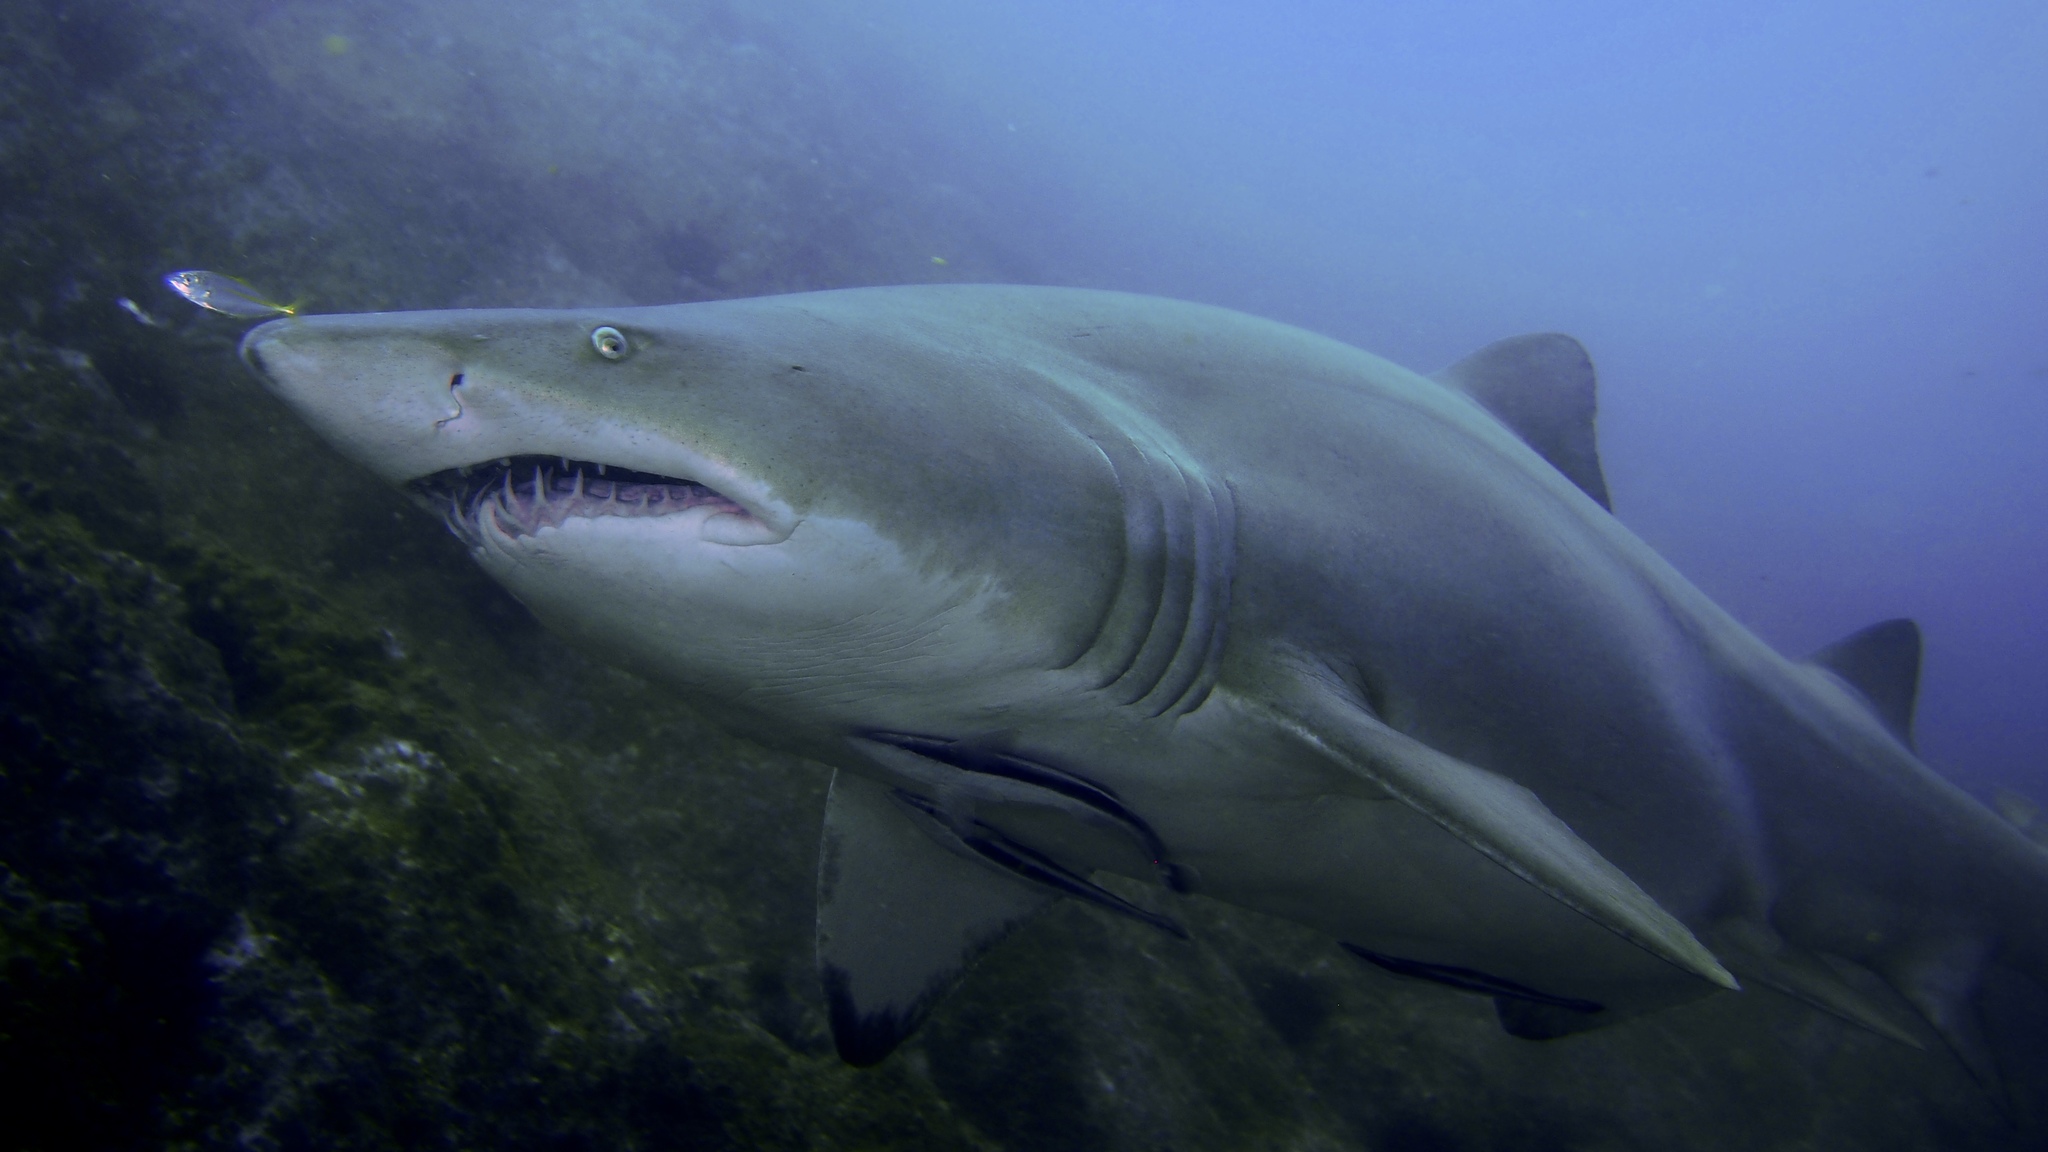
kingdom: Animalia
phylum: Chordata
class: Elasmobranchii
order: Lamniformes
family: Odontaspididae
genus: Carcharias
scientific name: Carcharias taurus
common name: Sand shark
